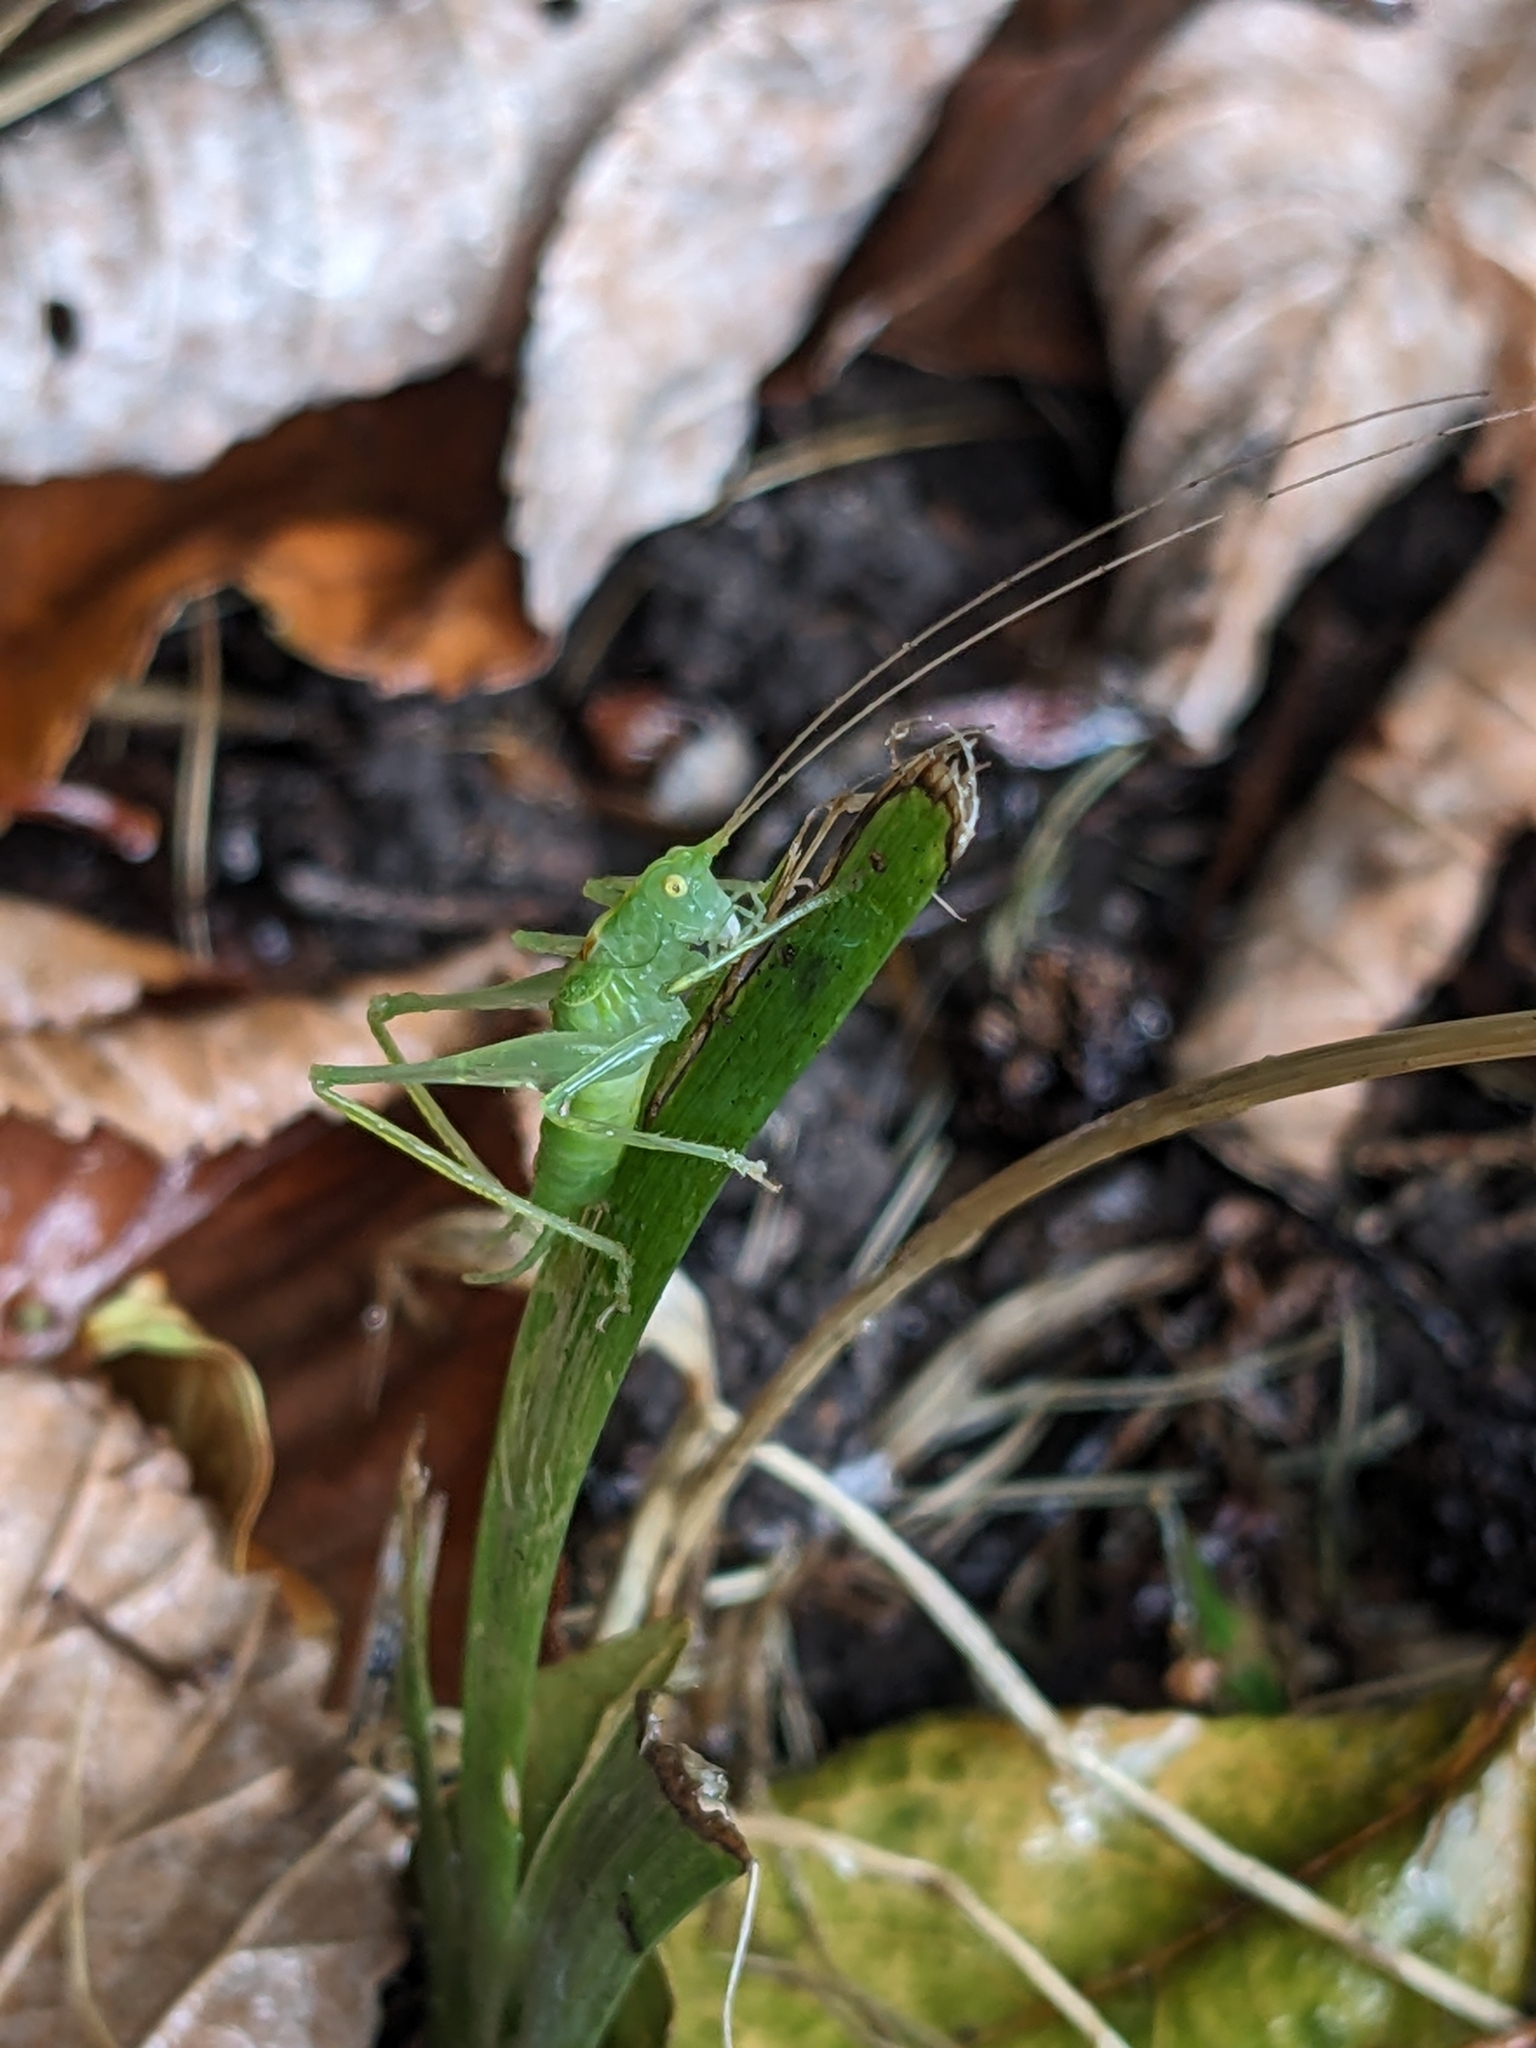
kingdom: Animalia
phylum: Arthropoda
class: Insecta
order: Orthoptera
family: Tettigoniidae
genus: Meconema
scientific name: Meconema meridionale
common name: Southern oak bush-cricket
